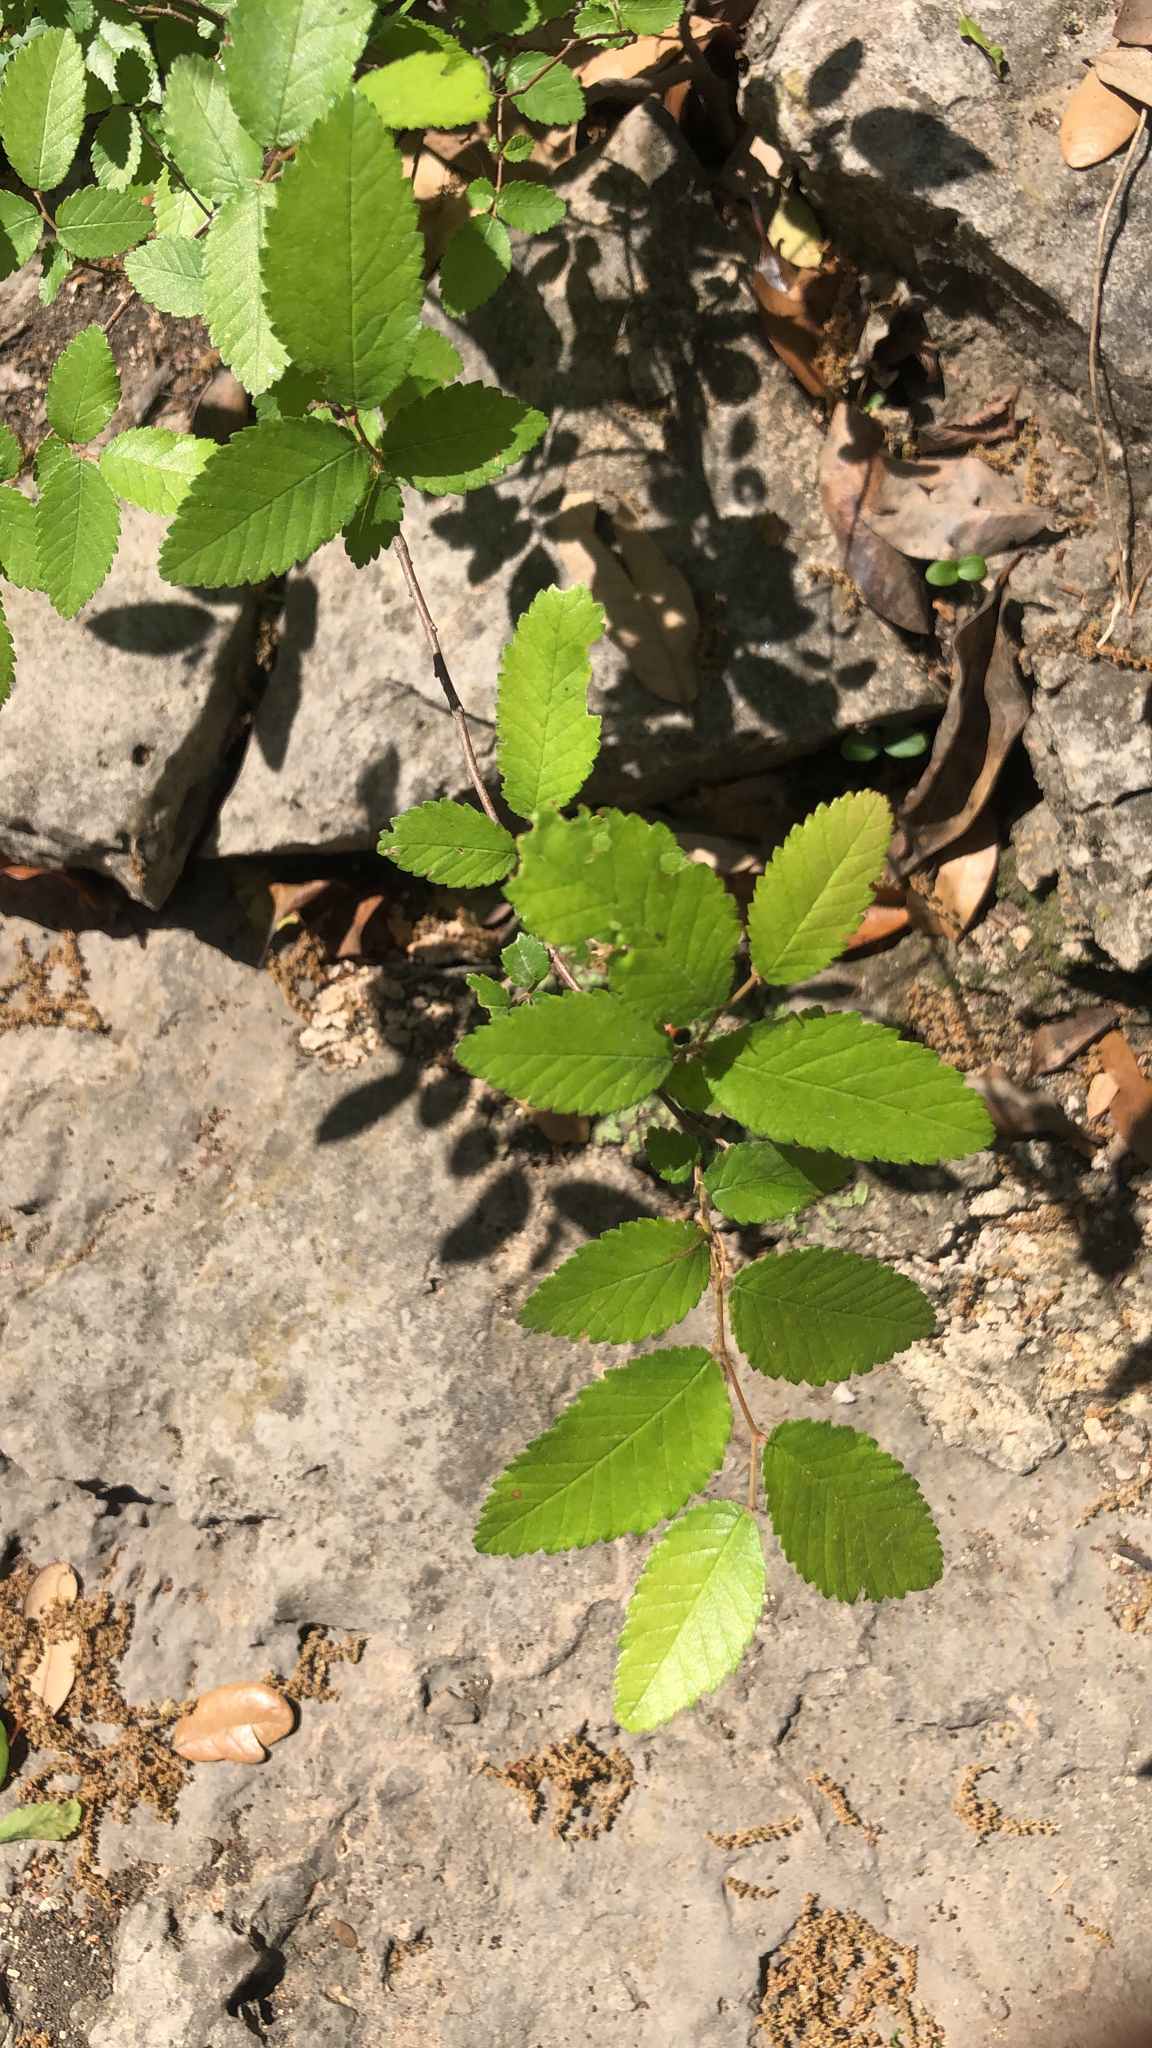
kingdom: Plantae
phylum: Tracheophyta
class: Magnoliopsida
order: Rosales
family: Ulmaceae
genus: Ulmus
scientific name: Ulmus crassifolia
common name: Basket elm
